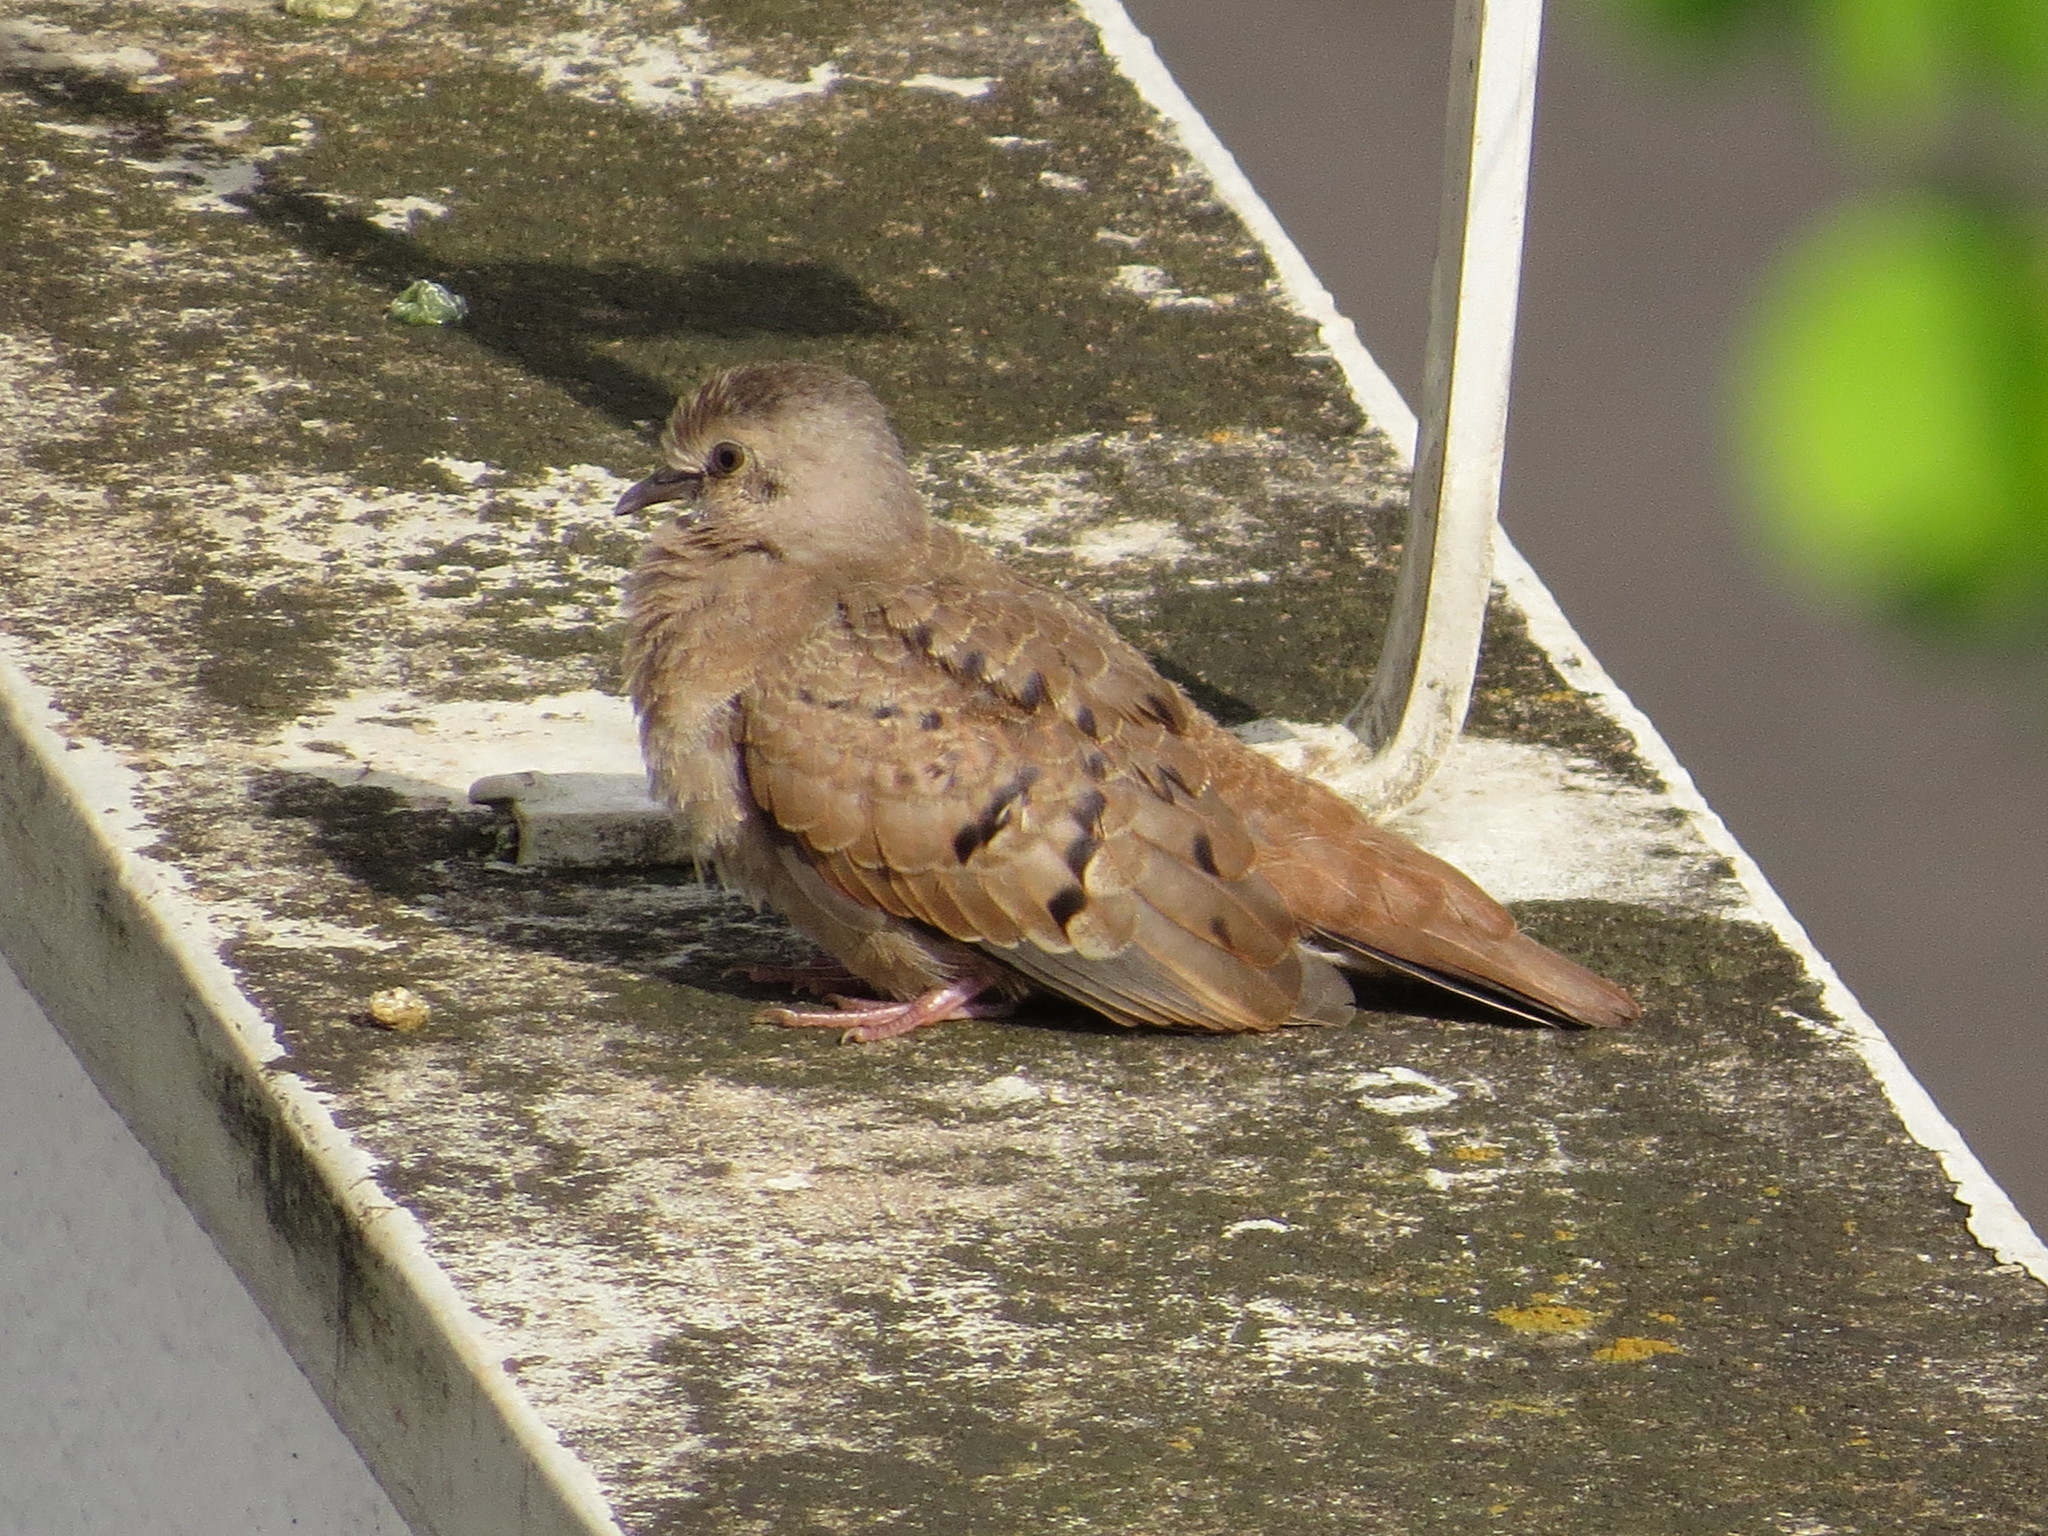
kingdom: Animalia
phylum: Chordata
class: Aves
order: Columbiformes
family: Columbidae
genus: Columbina
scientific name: Columbina talpacoti
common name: Ruddy ground dove
